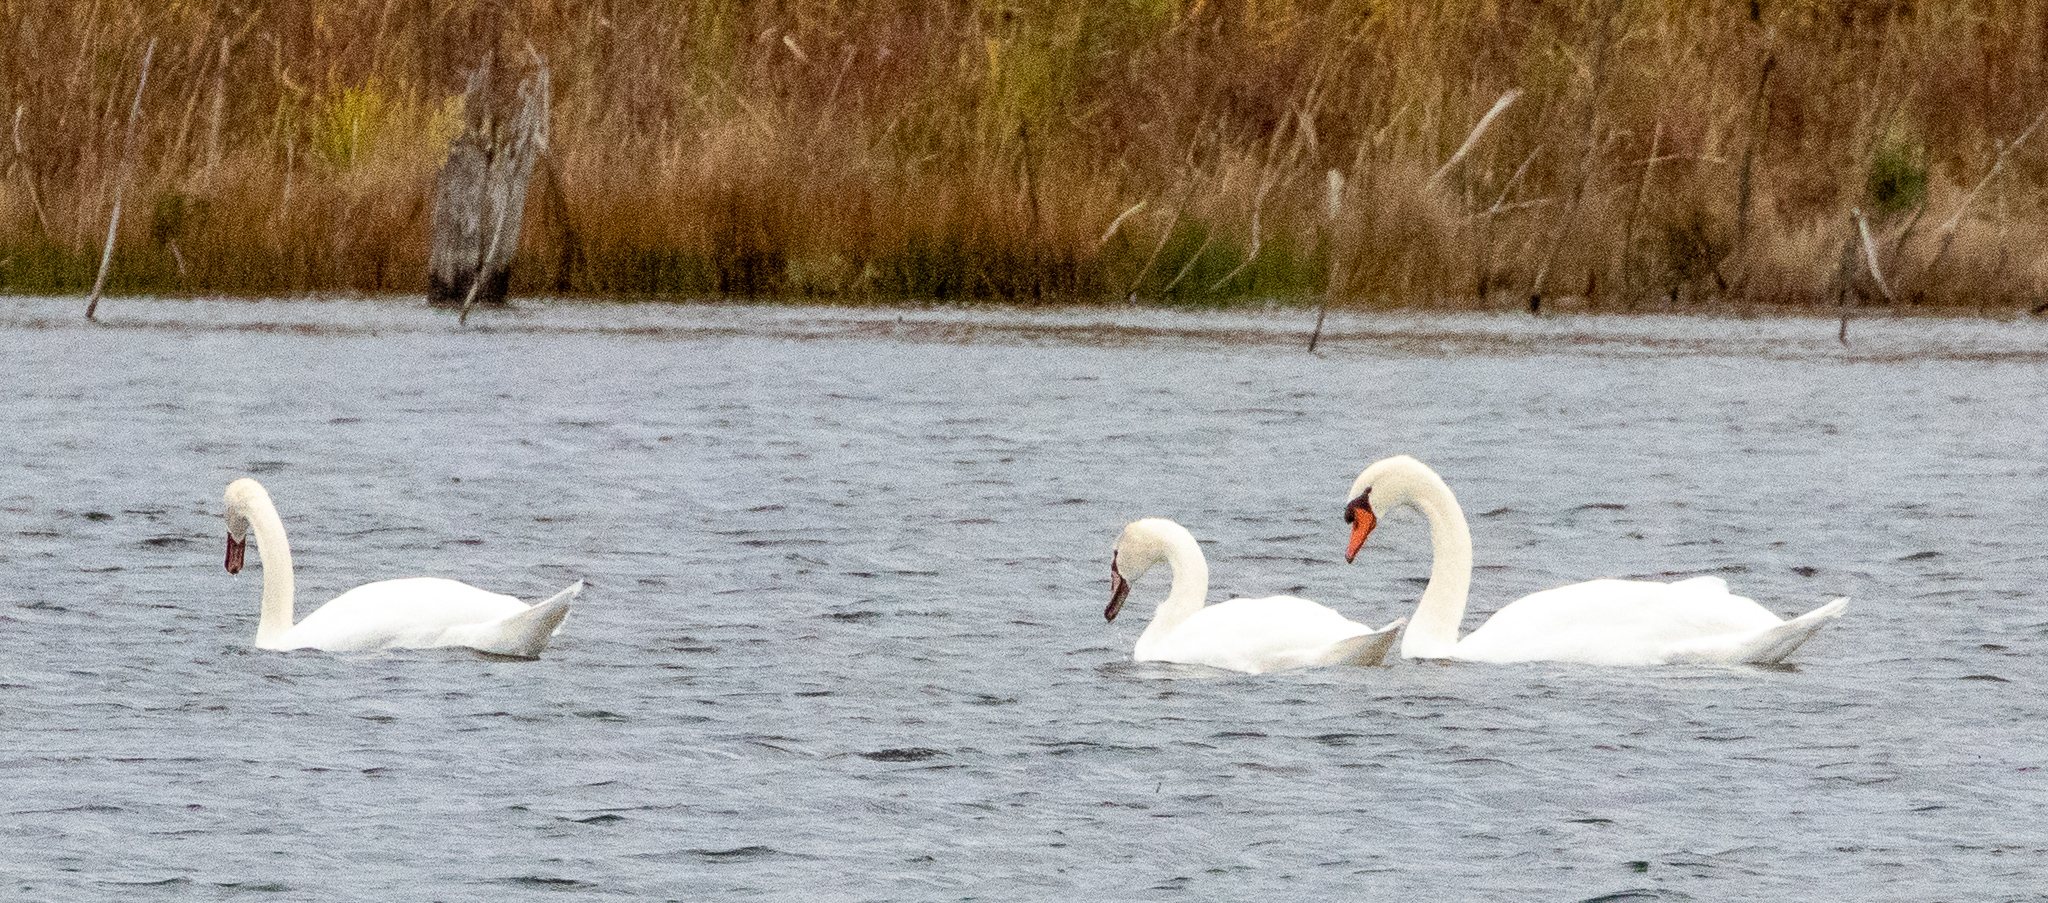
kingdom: Animalia
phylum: Chordata
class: Aves
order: Anseriformes
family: Anatidae
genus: Cygnus
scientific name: Cygnus olor
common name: Mute swan
